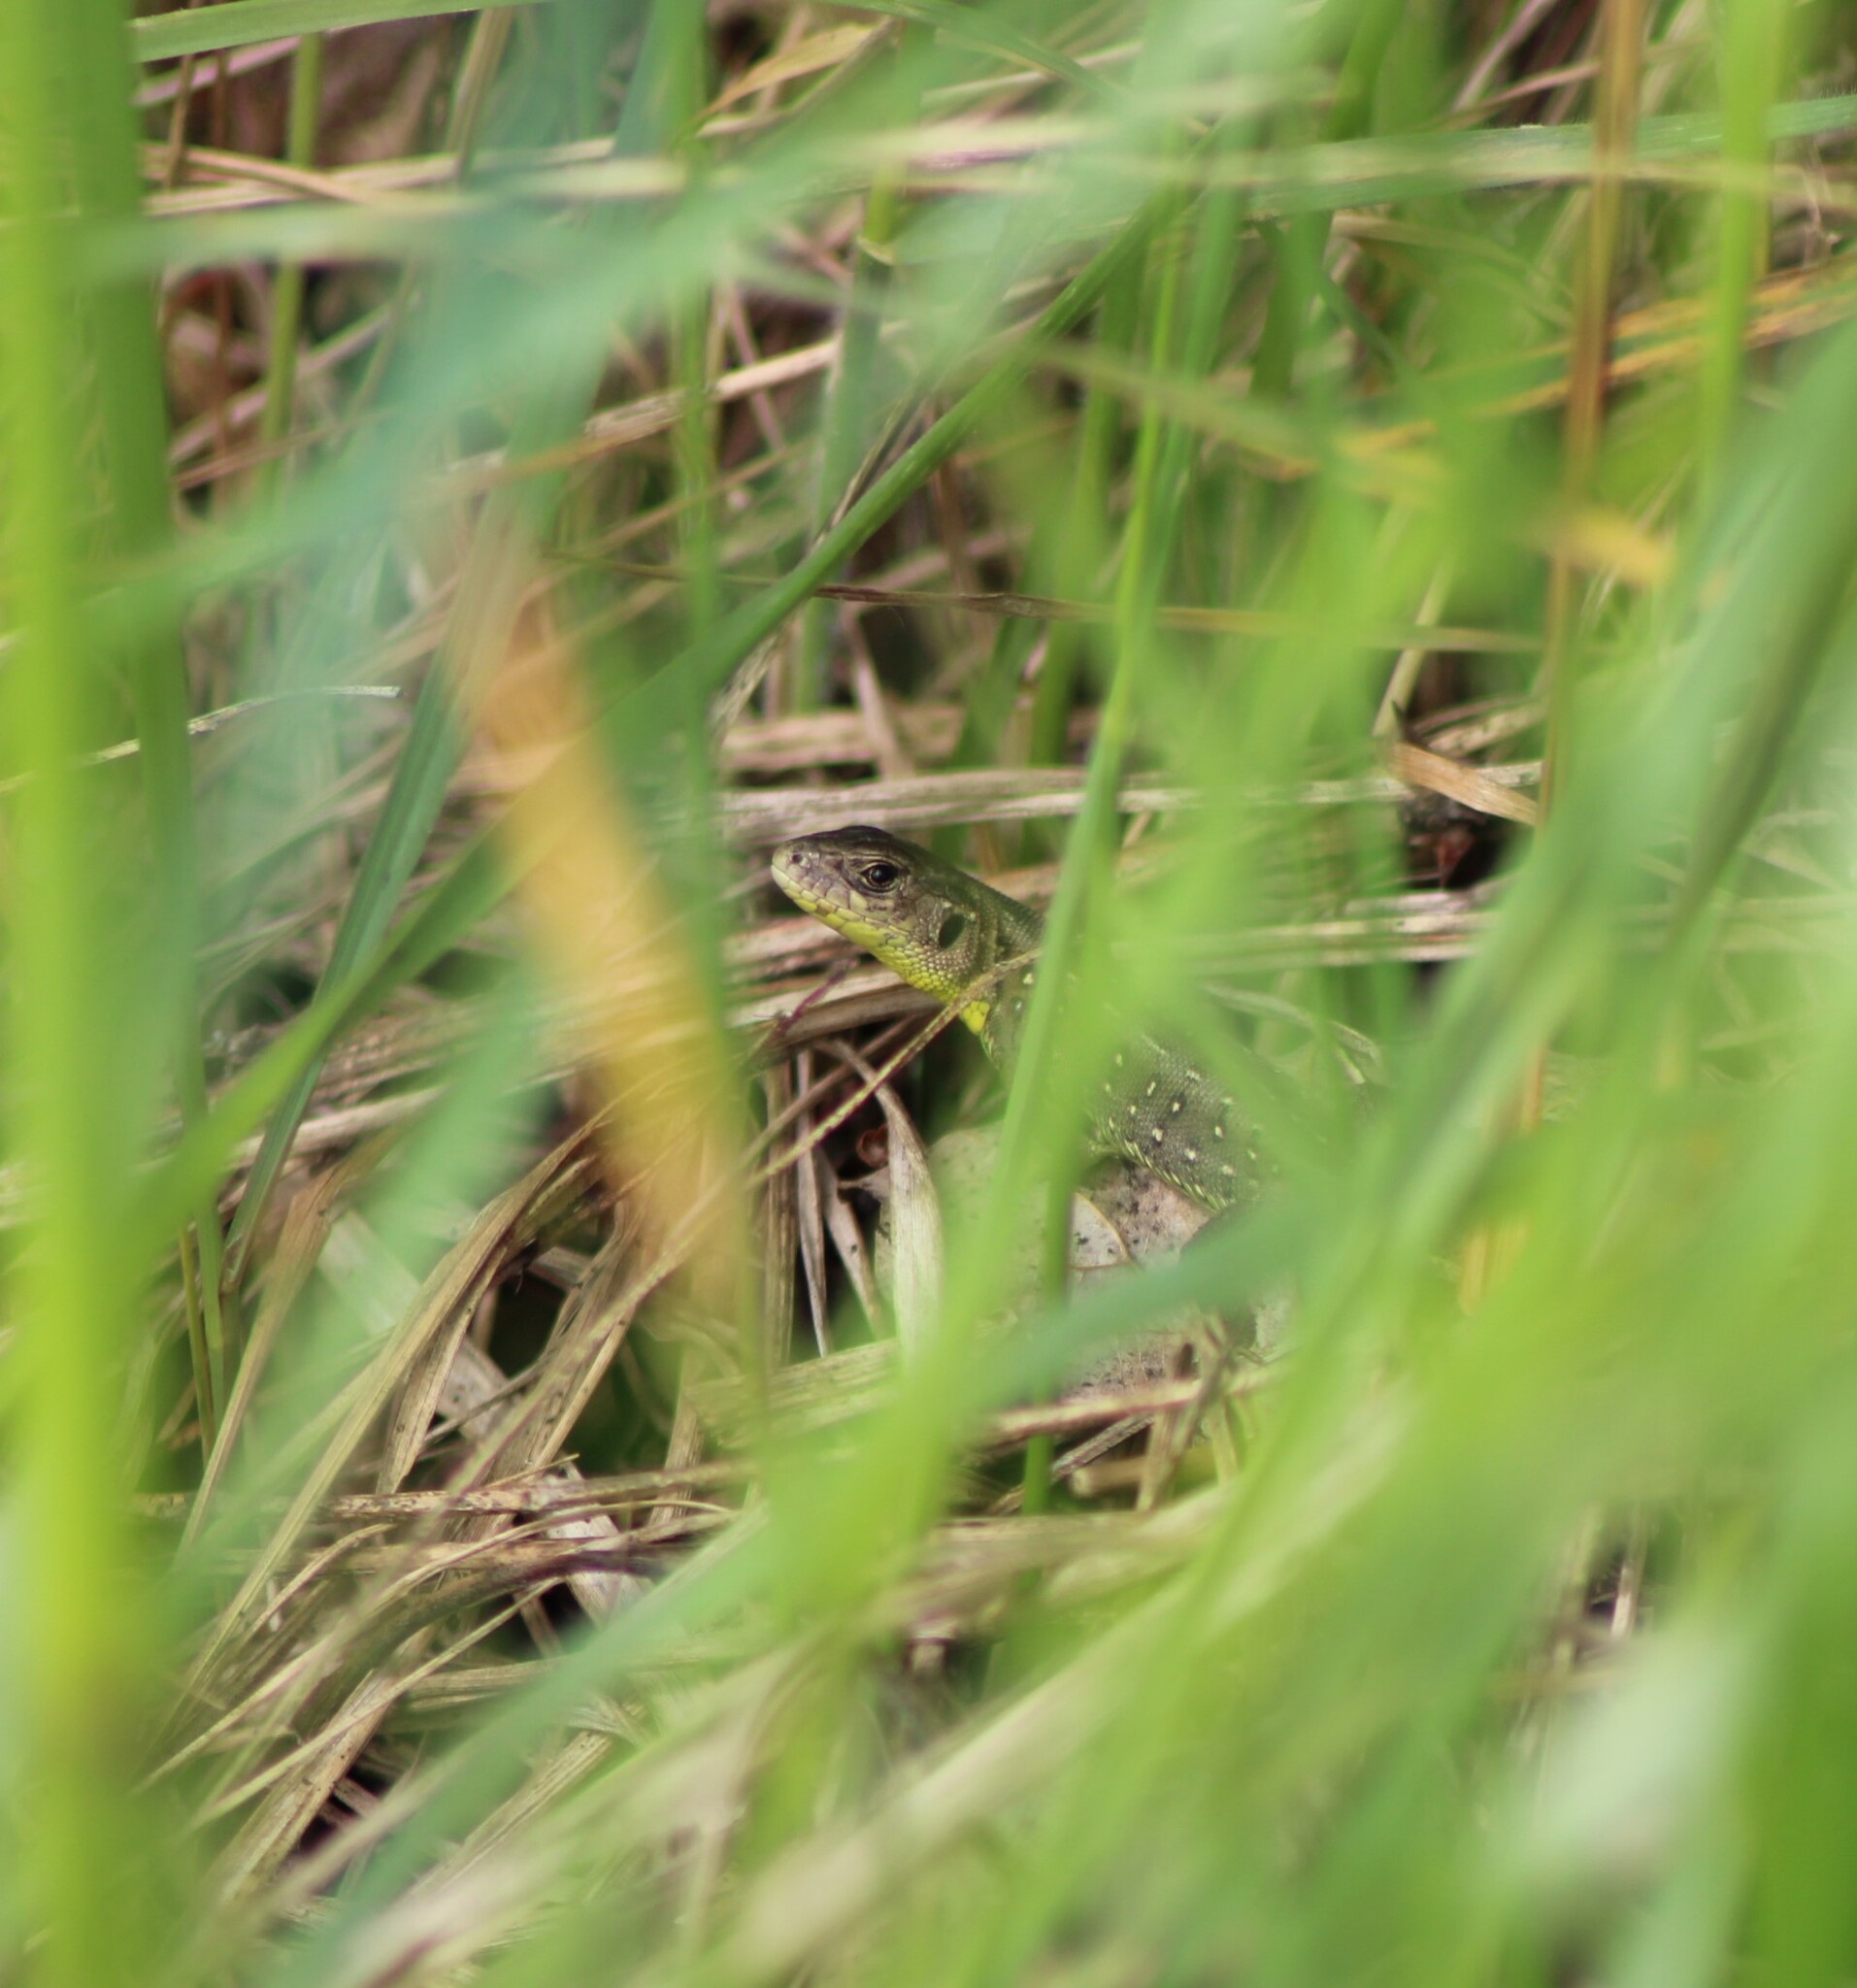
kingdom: Animalia
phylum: Chordata
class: Squamata
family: Lacertidae
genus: Lacerta
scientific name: Lacerta agilis
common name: Sand lizard
